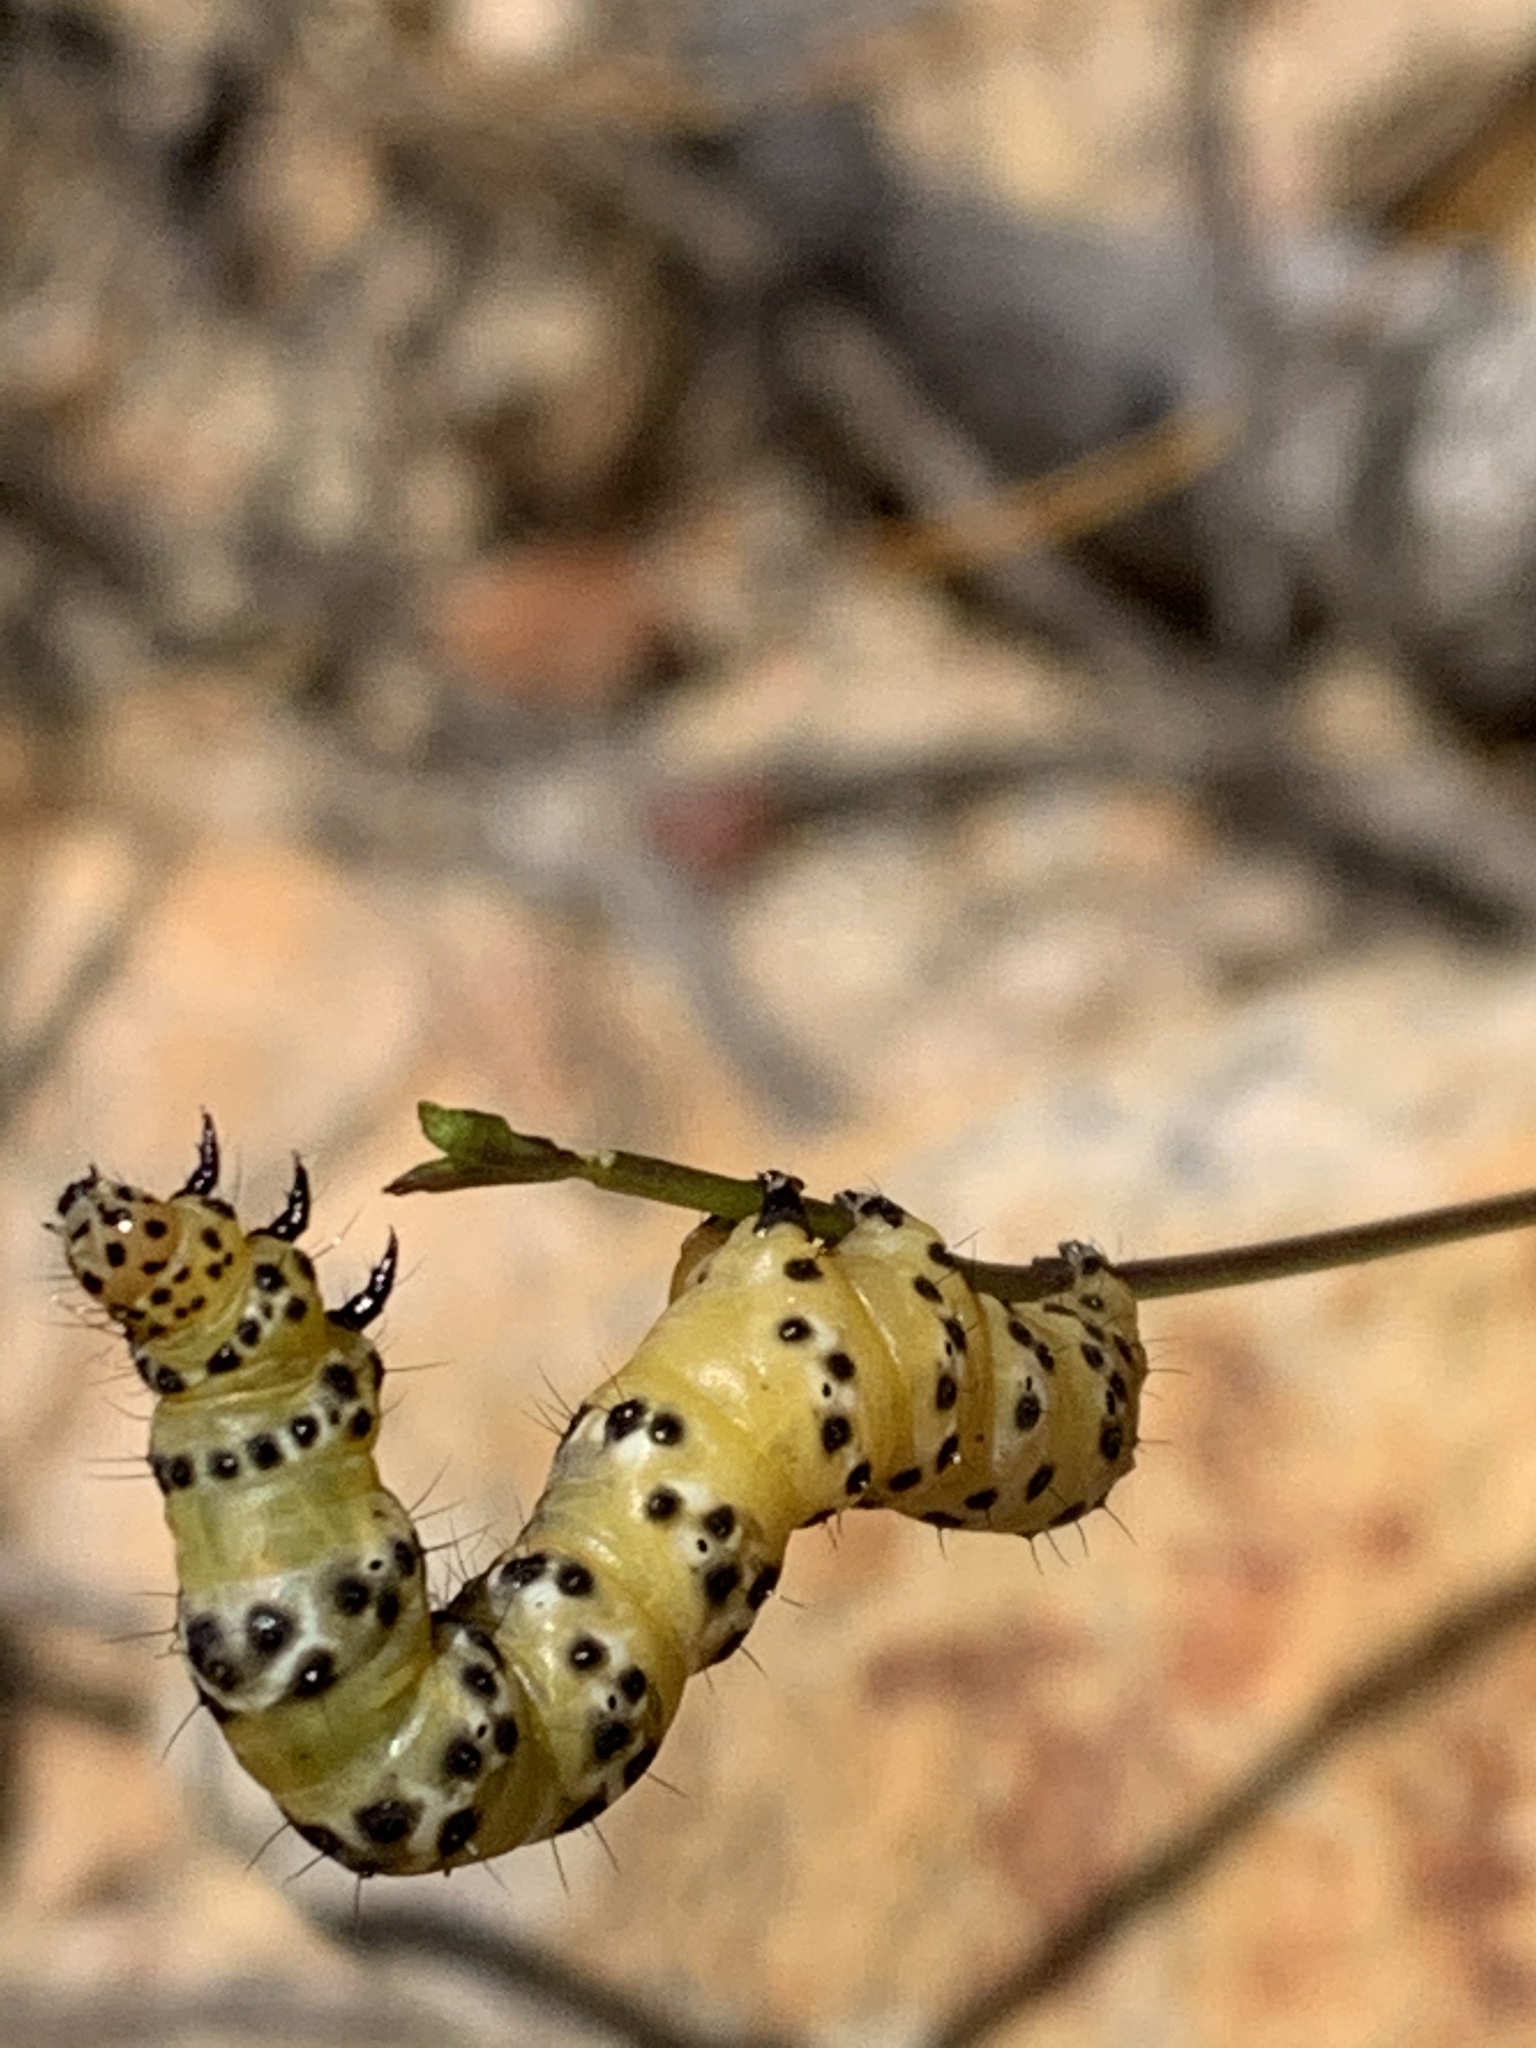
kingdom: Animalia
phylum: Arthropoda
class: Insecta
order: Lepidoptera
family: Noctuidae
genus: Ctenoplusia
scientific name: Ctenoplusia lavendula
